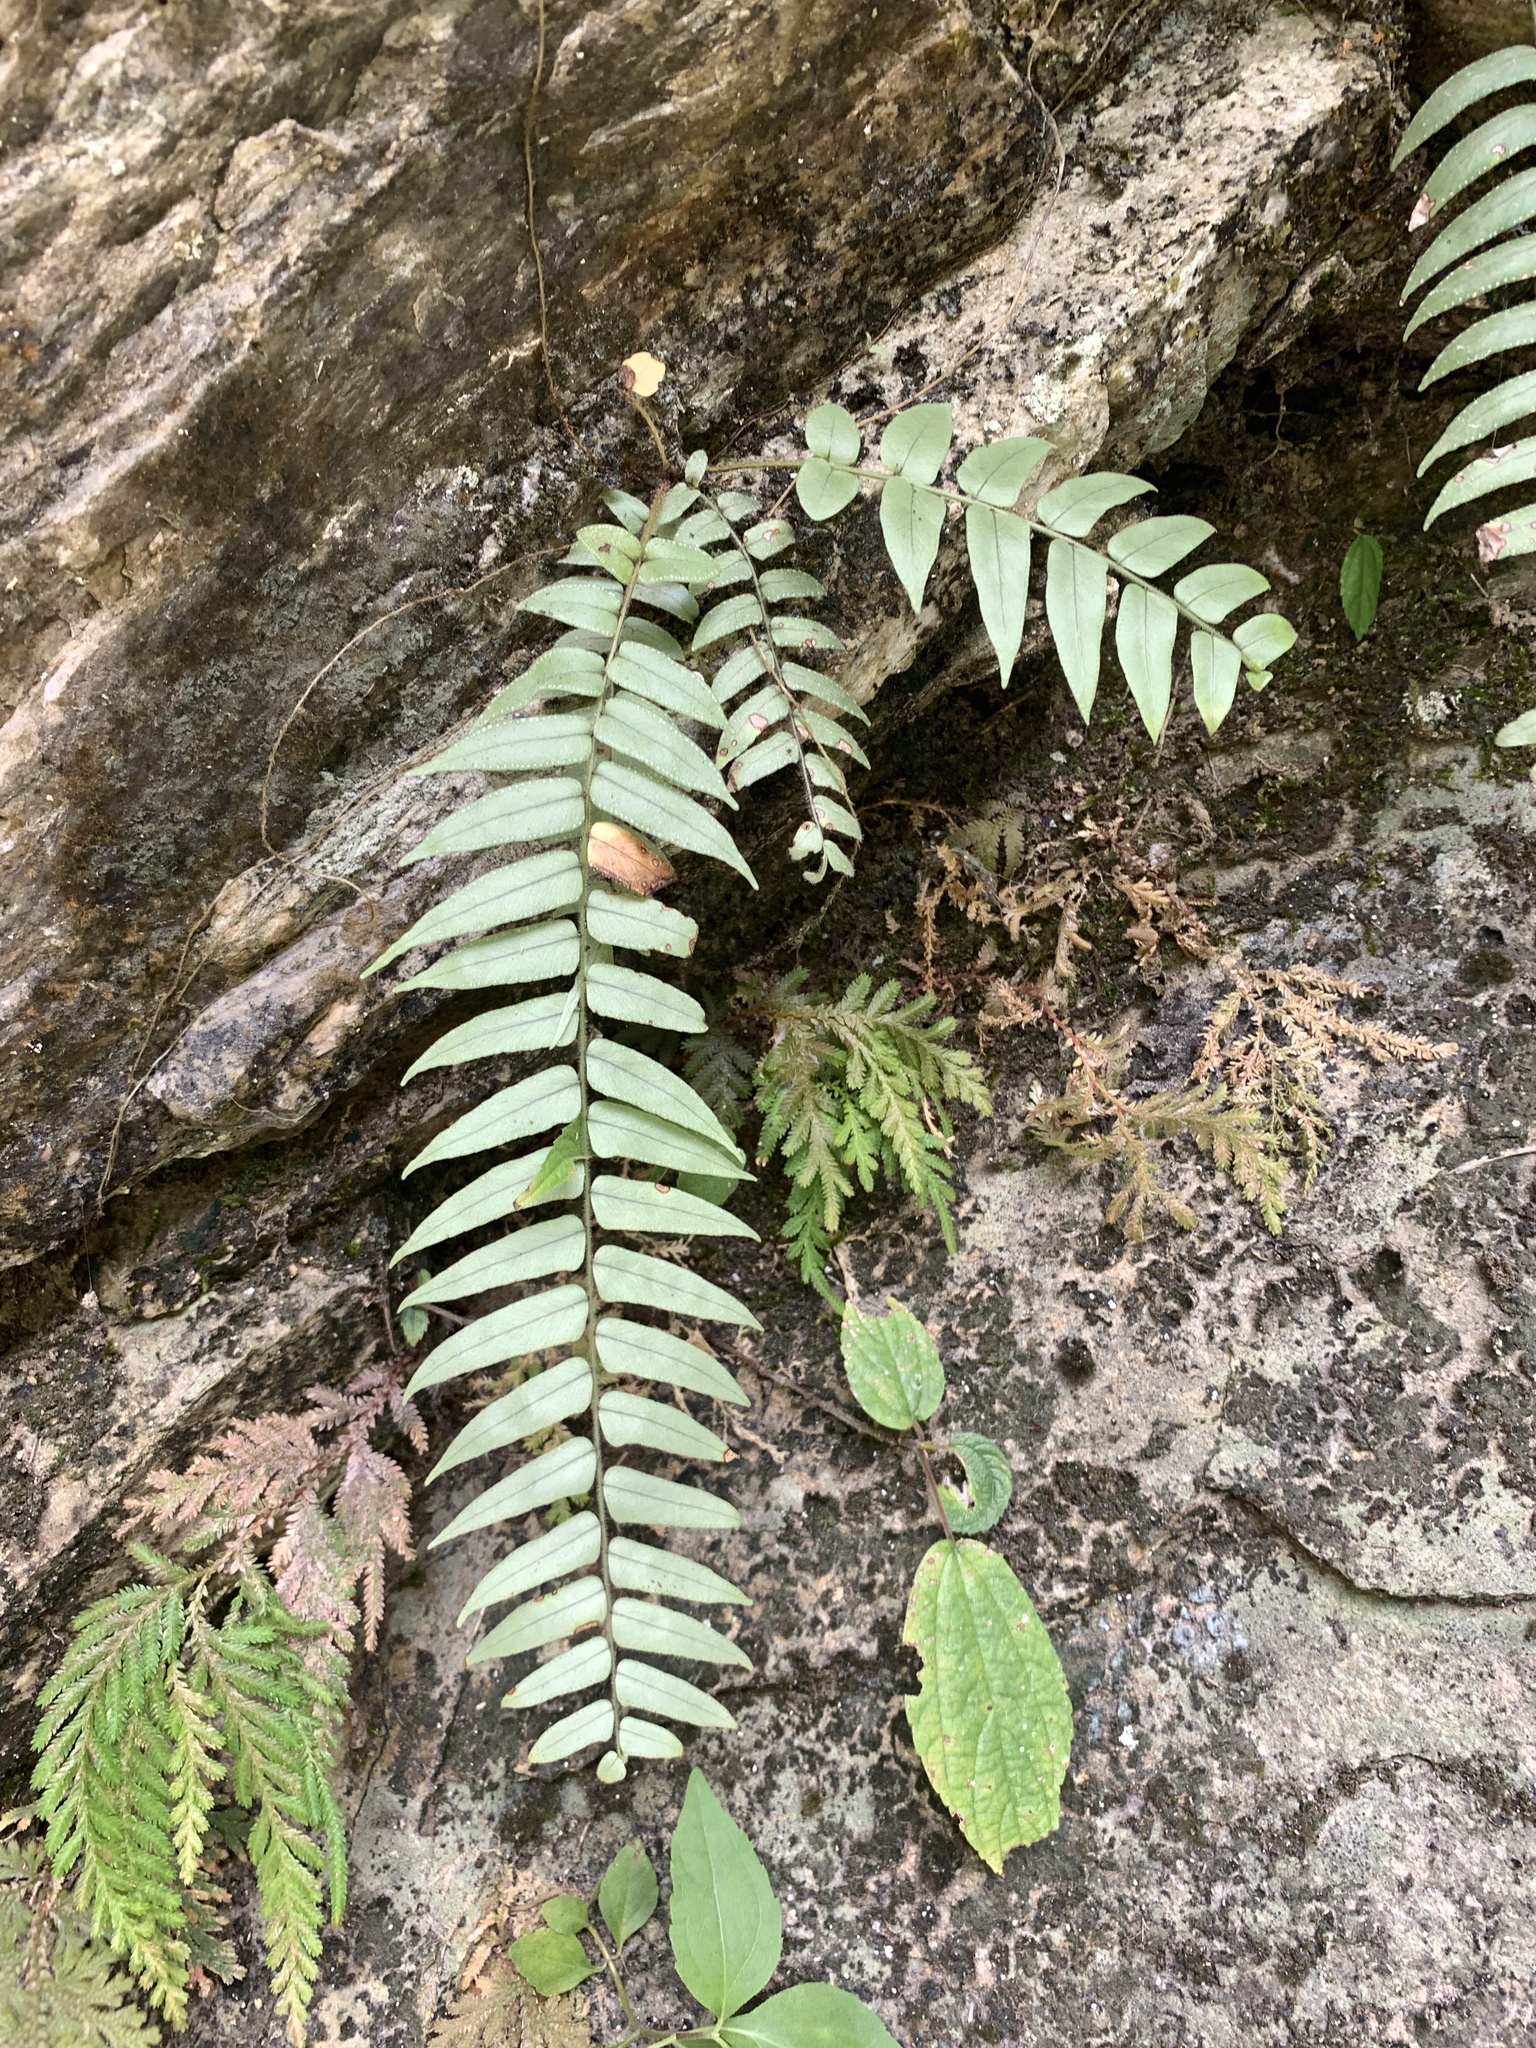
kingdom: Plantae
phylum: Tracheophyta
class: Polypodiopsida
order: Polypodiales
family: Nephrolepidaceae
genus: Nephrolepis
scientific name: Nephrolepis biserrata
